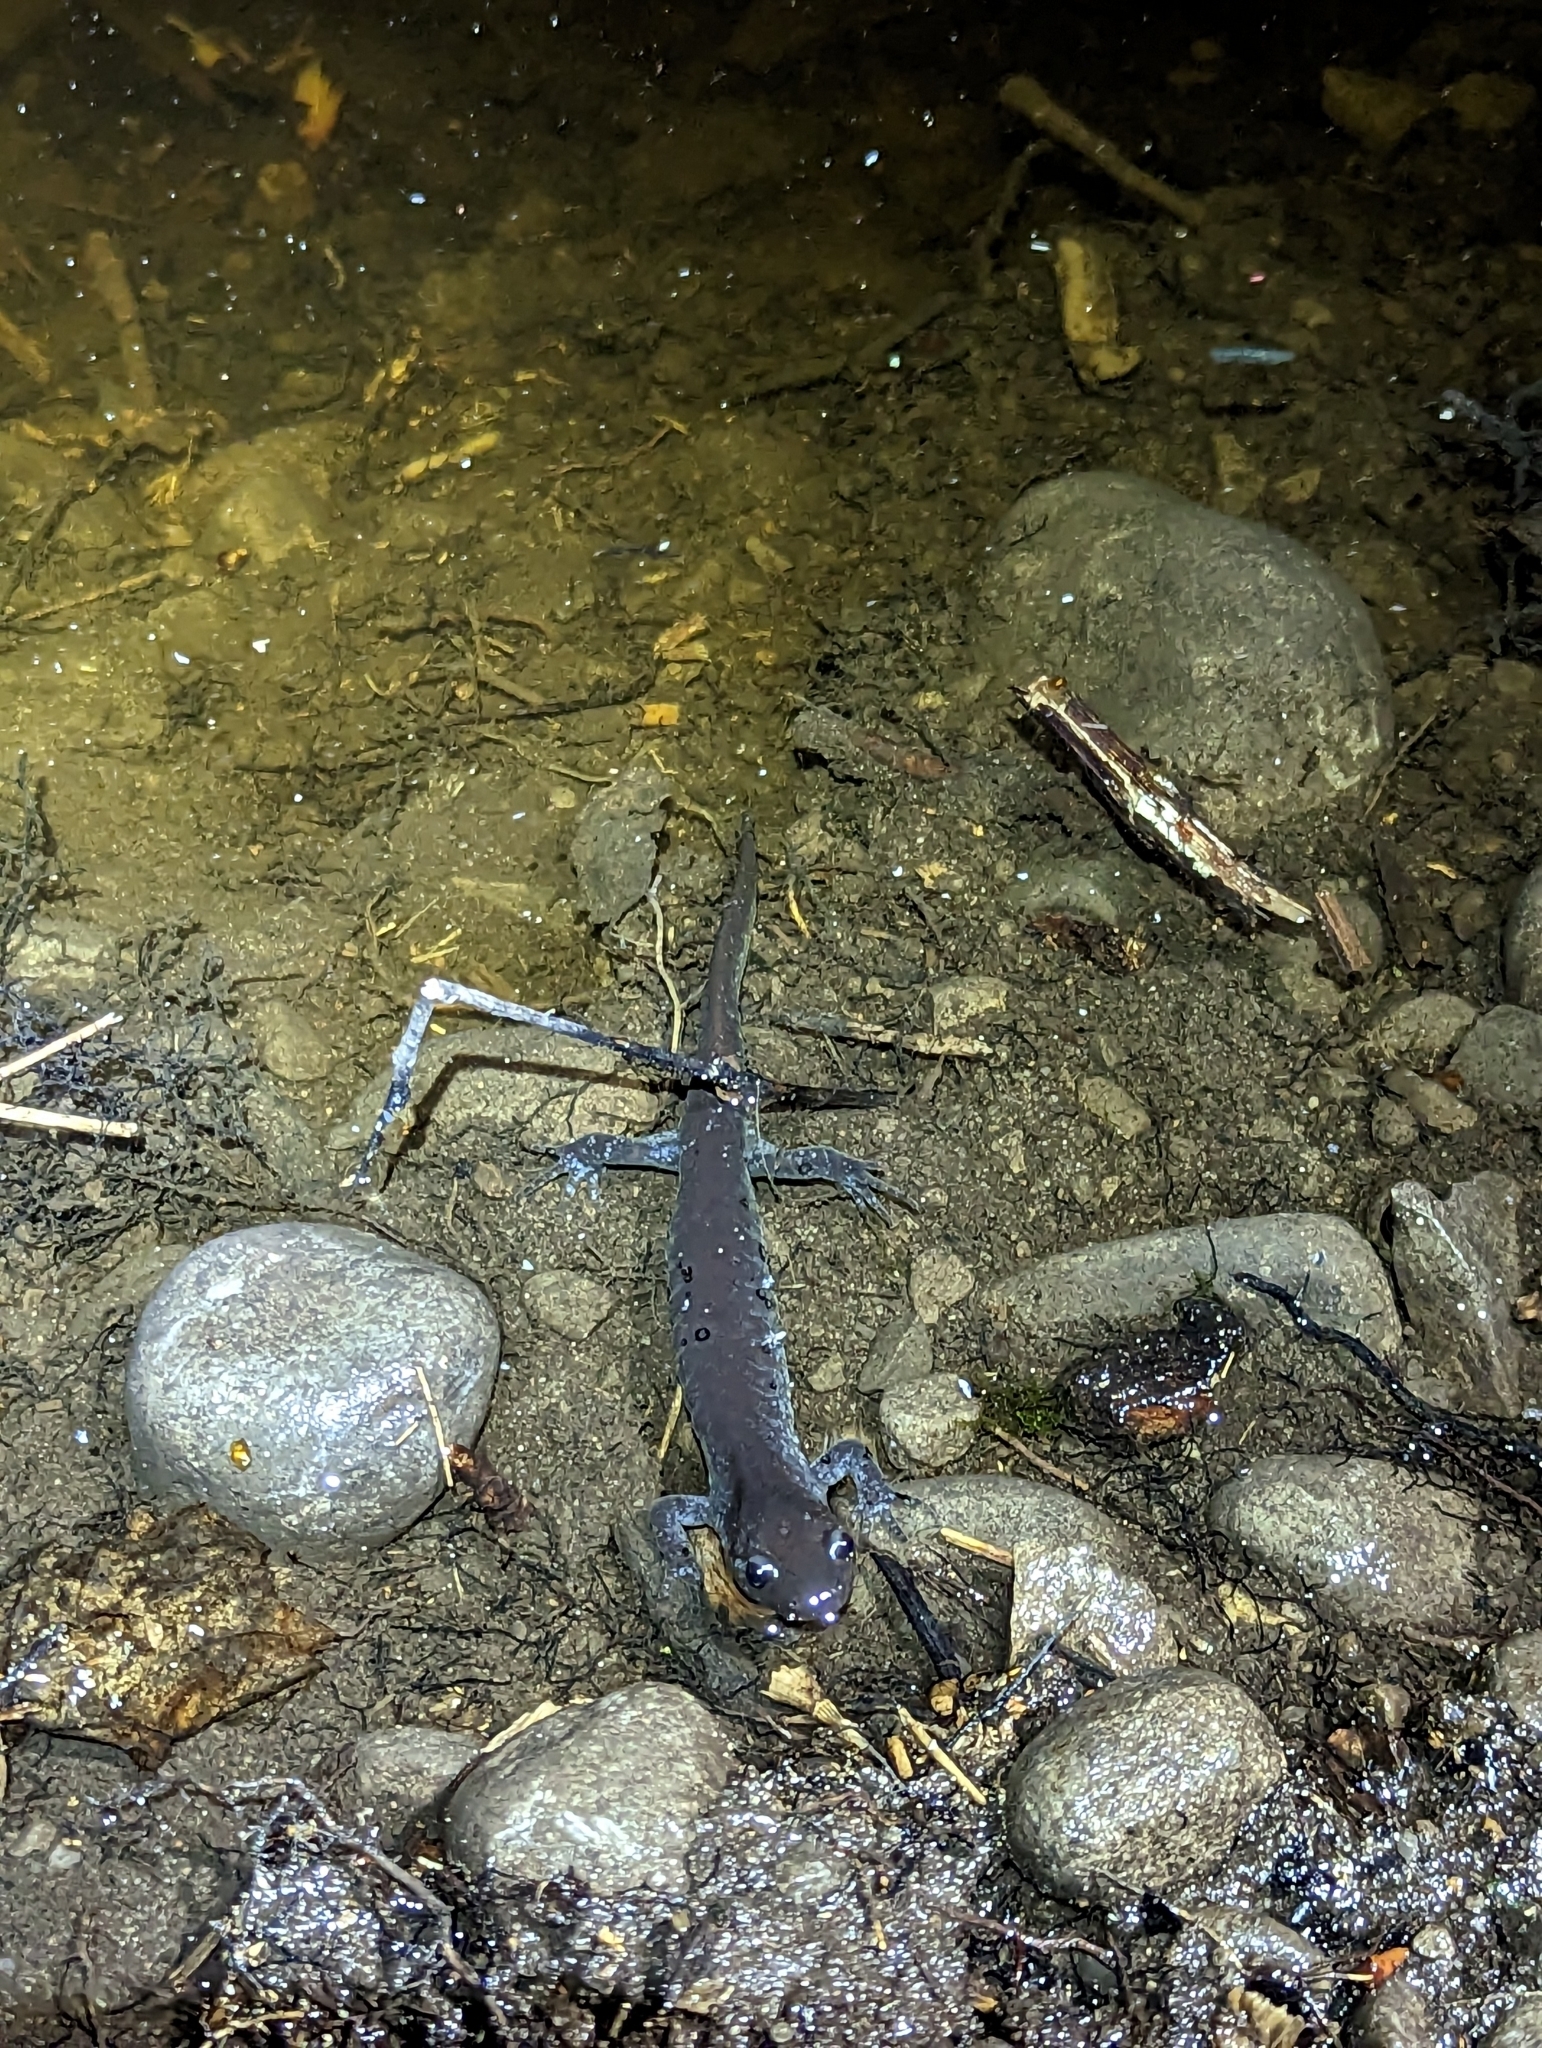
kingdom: Animalia
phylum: Chordata
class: Amphibia
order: Caudata
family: Ambystomatidae
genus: Ambystoma
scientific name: Ambystoma laterale
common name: Blue-spotted salamander
